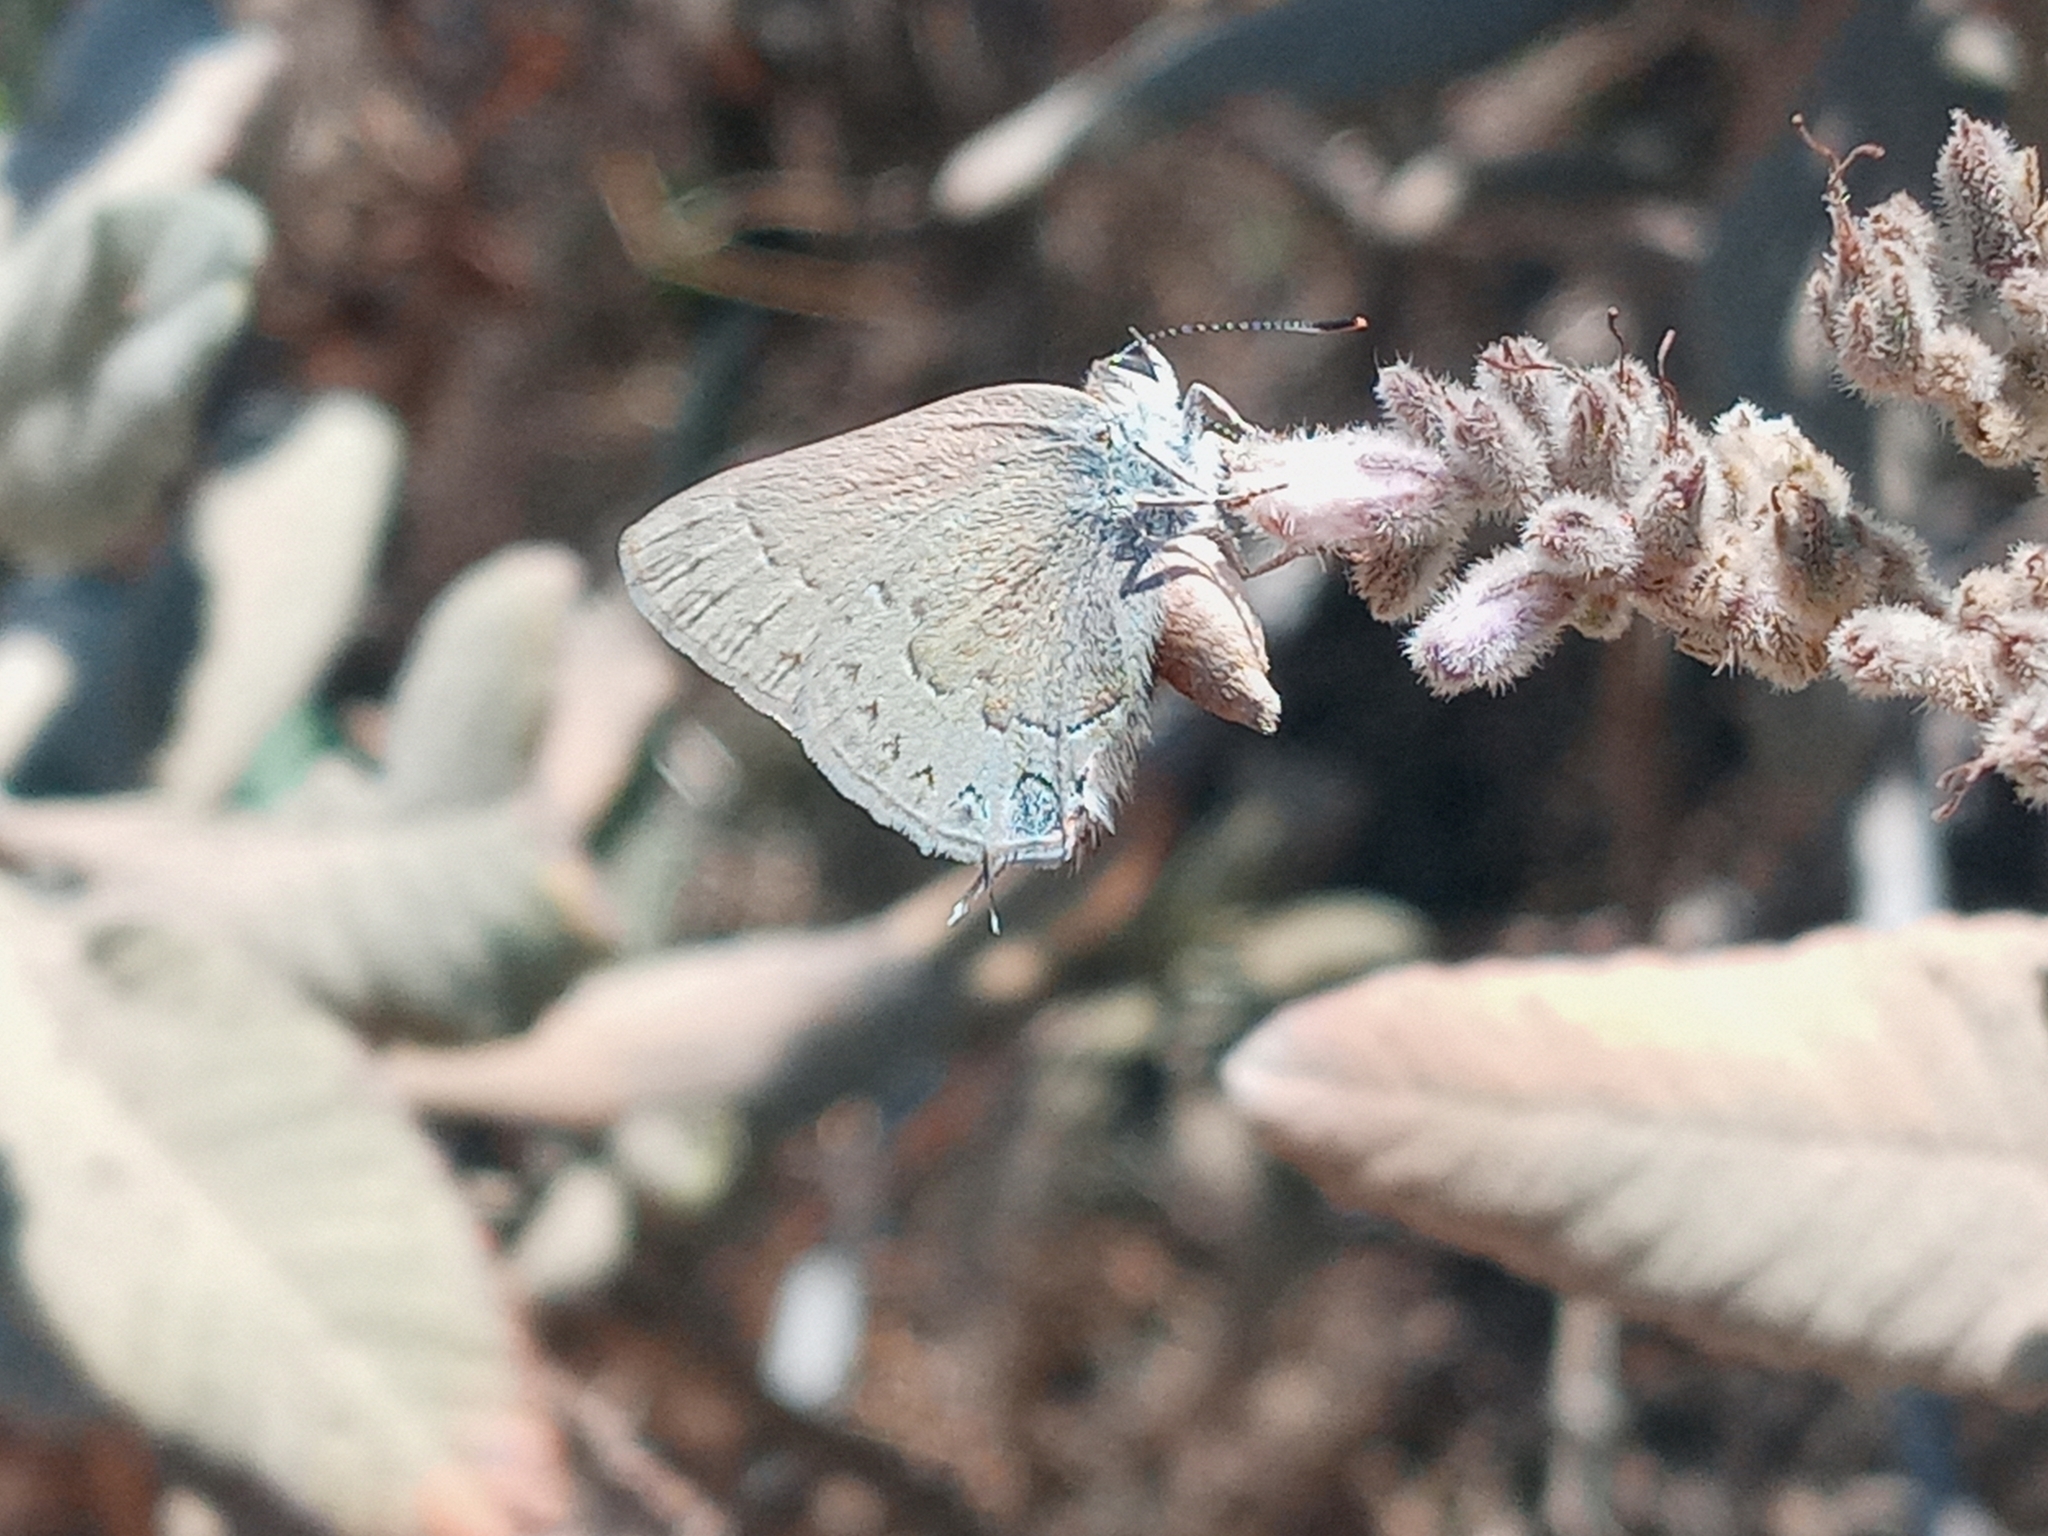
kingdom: Animalia
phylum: Arthropoda
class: Insecta
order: Lepidoptera
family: Lycaenidae
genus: Strymon
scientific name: Strymon saepium
